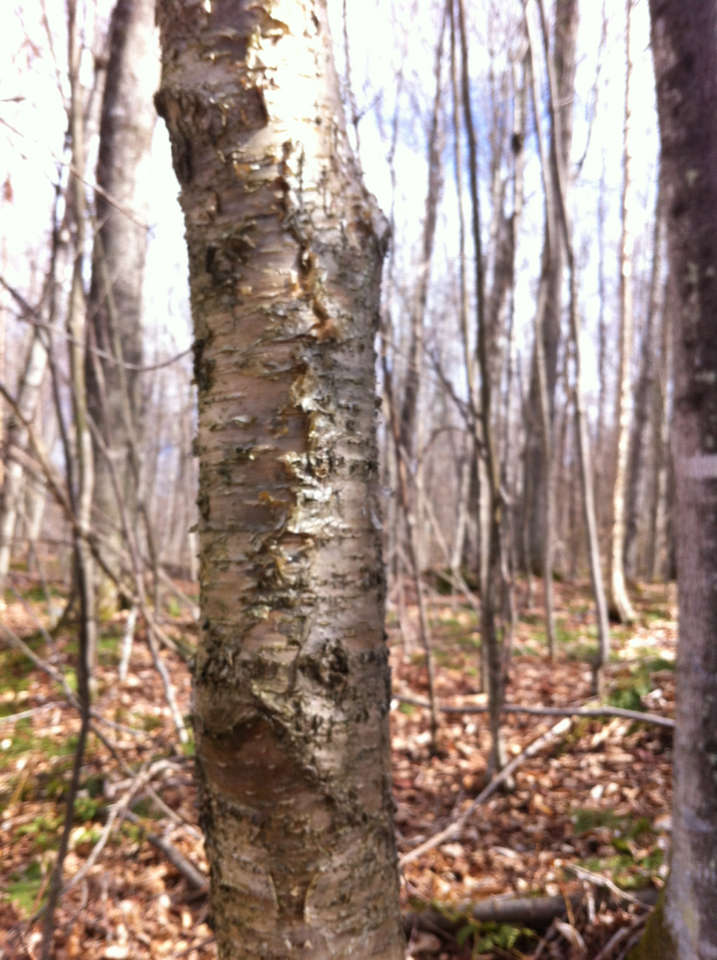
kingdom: Plantae
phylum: Tracheophyta
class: Magnoliopsida
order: Fagales
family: Betulaceae
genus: Betula
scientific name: Betula alleghaniensis
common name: Yellow birch
